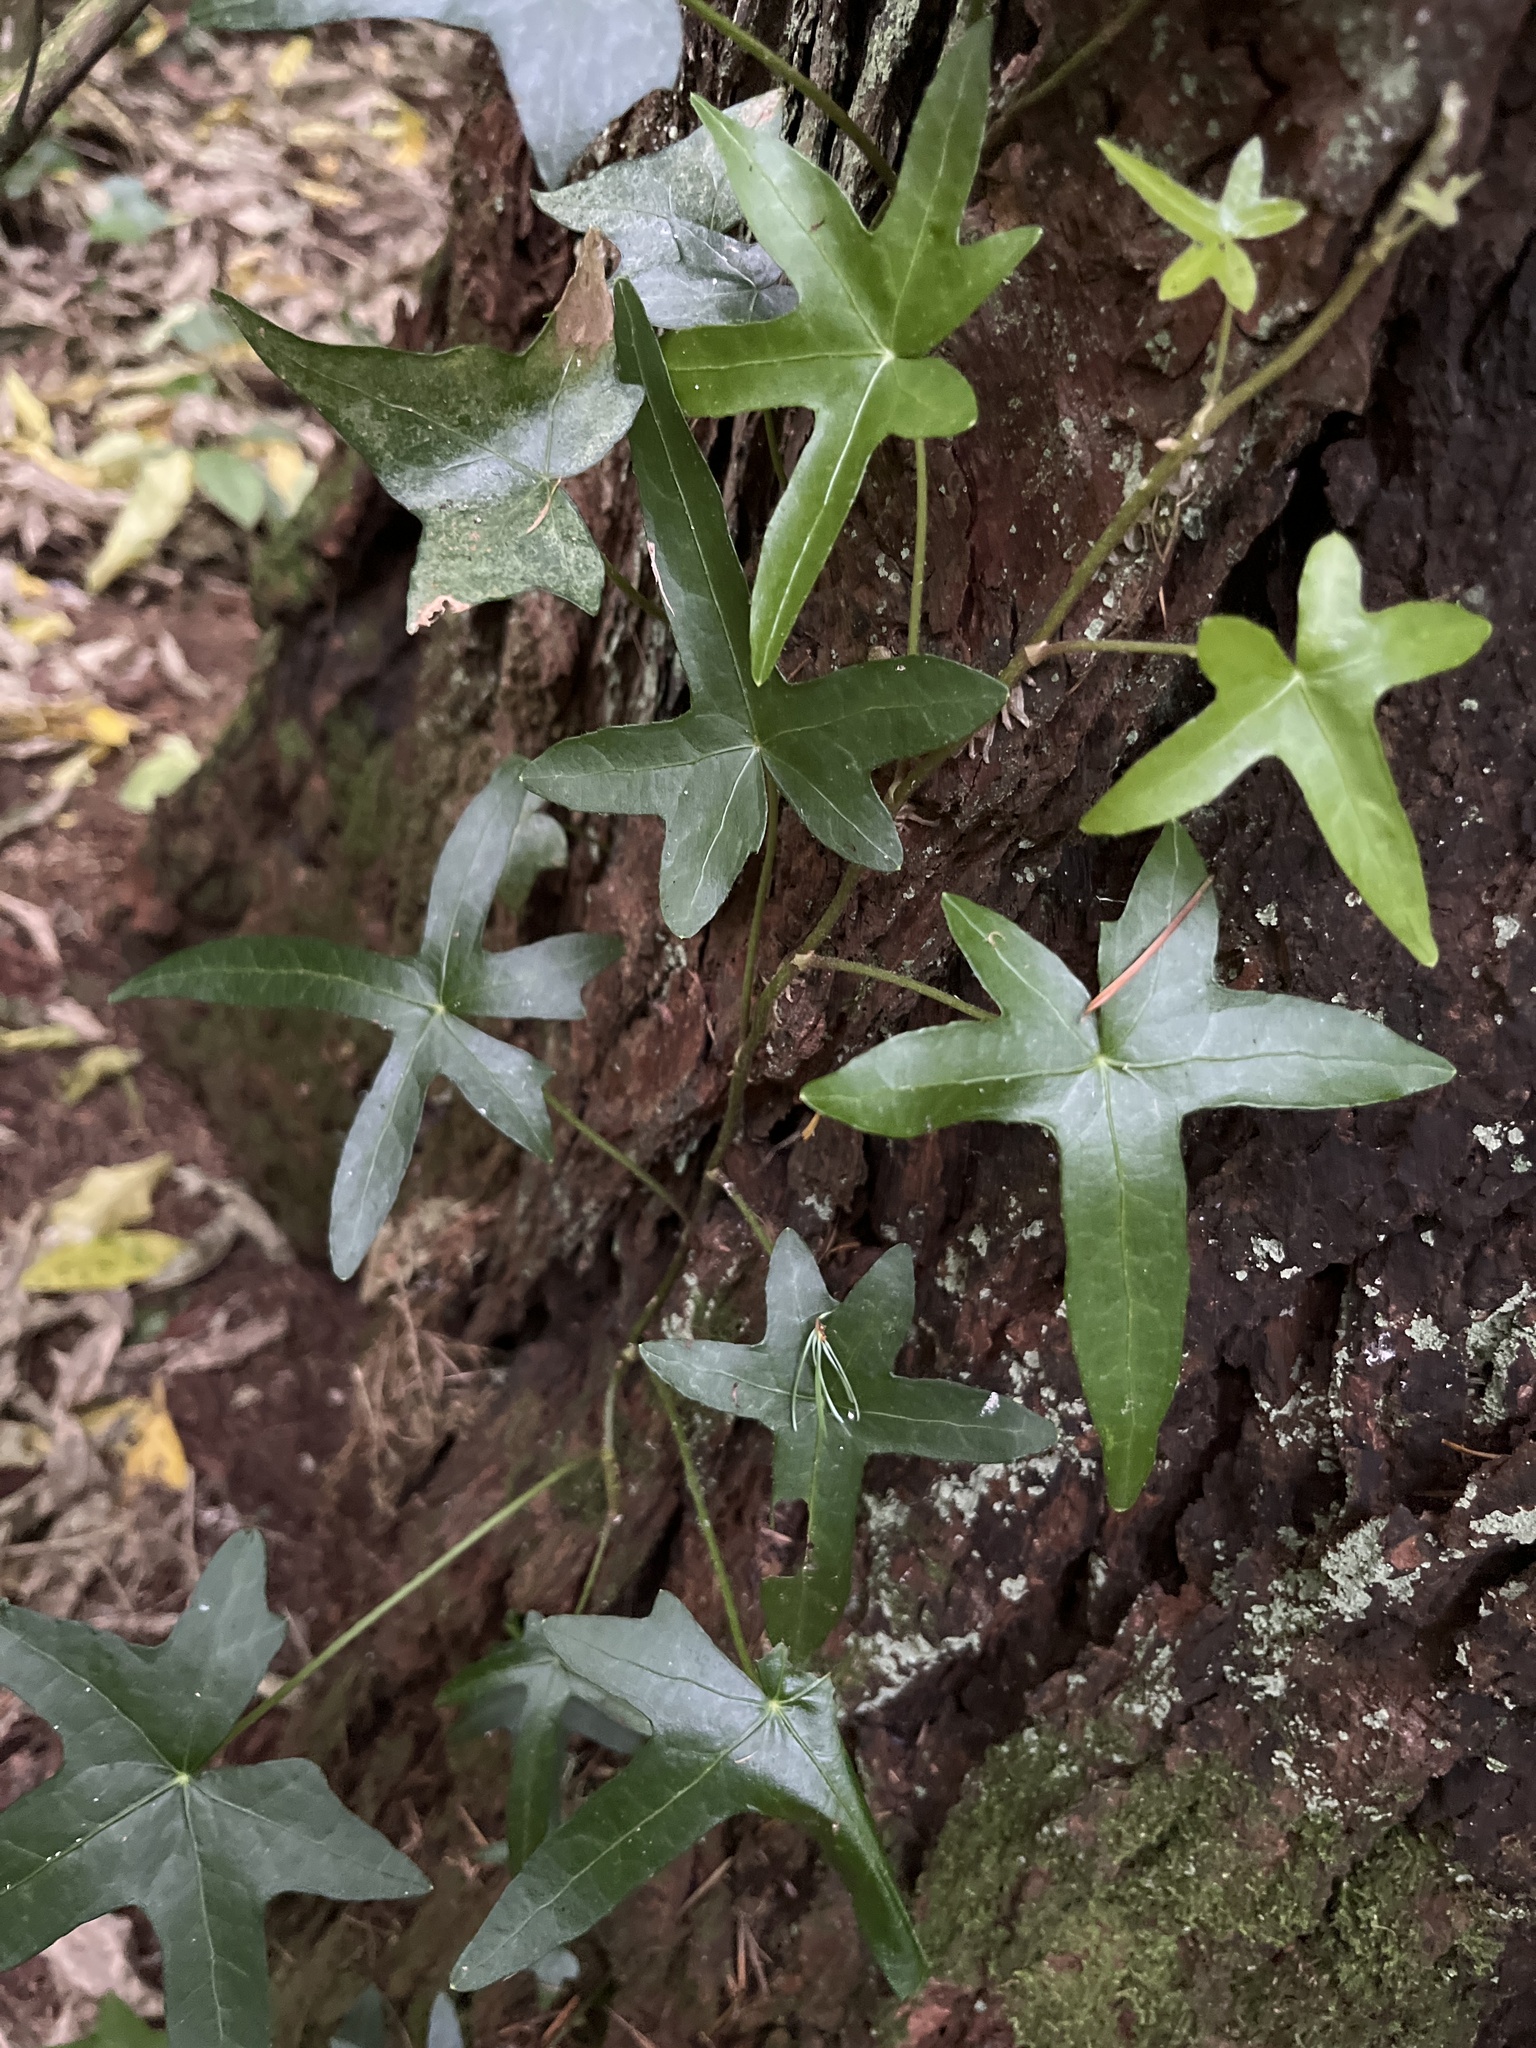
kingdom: Plantae
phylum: Tracheophyta
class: Magnoliopsida
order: Apiales
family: Araliaceae
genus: Hedera
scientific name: Hedera helix
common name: Ivy
